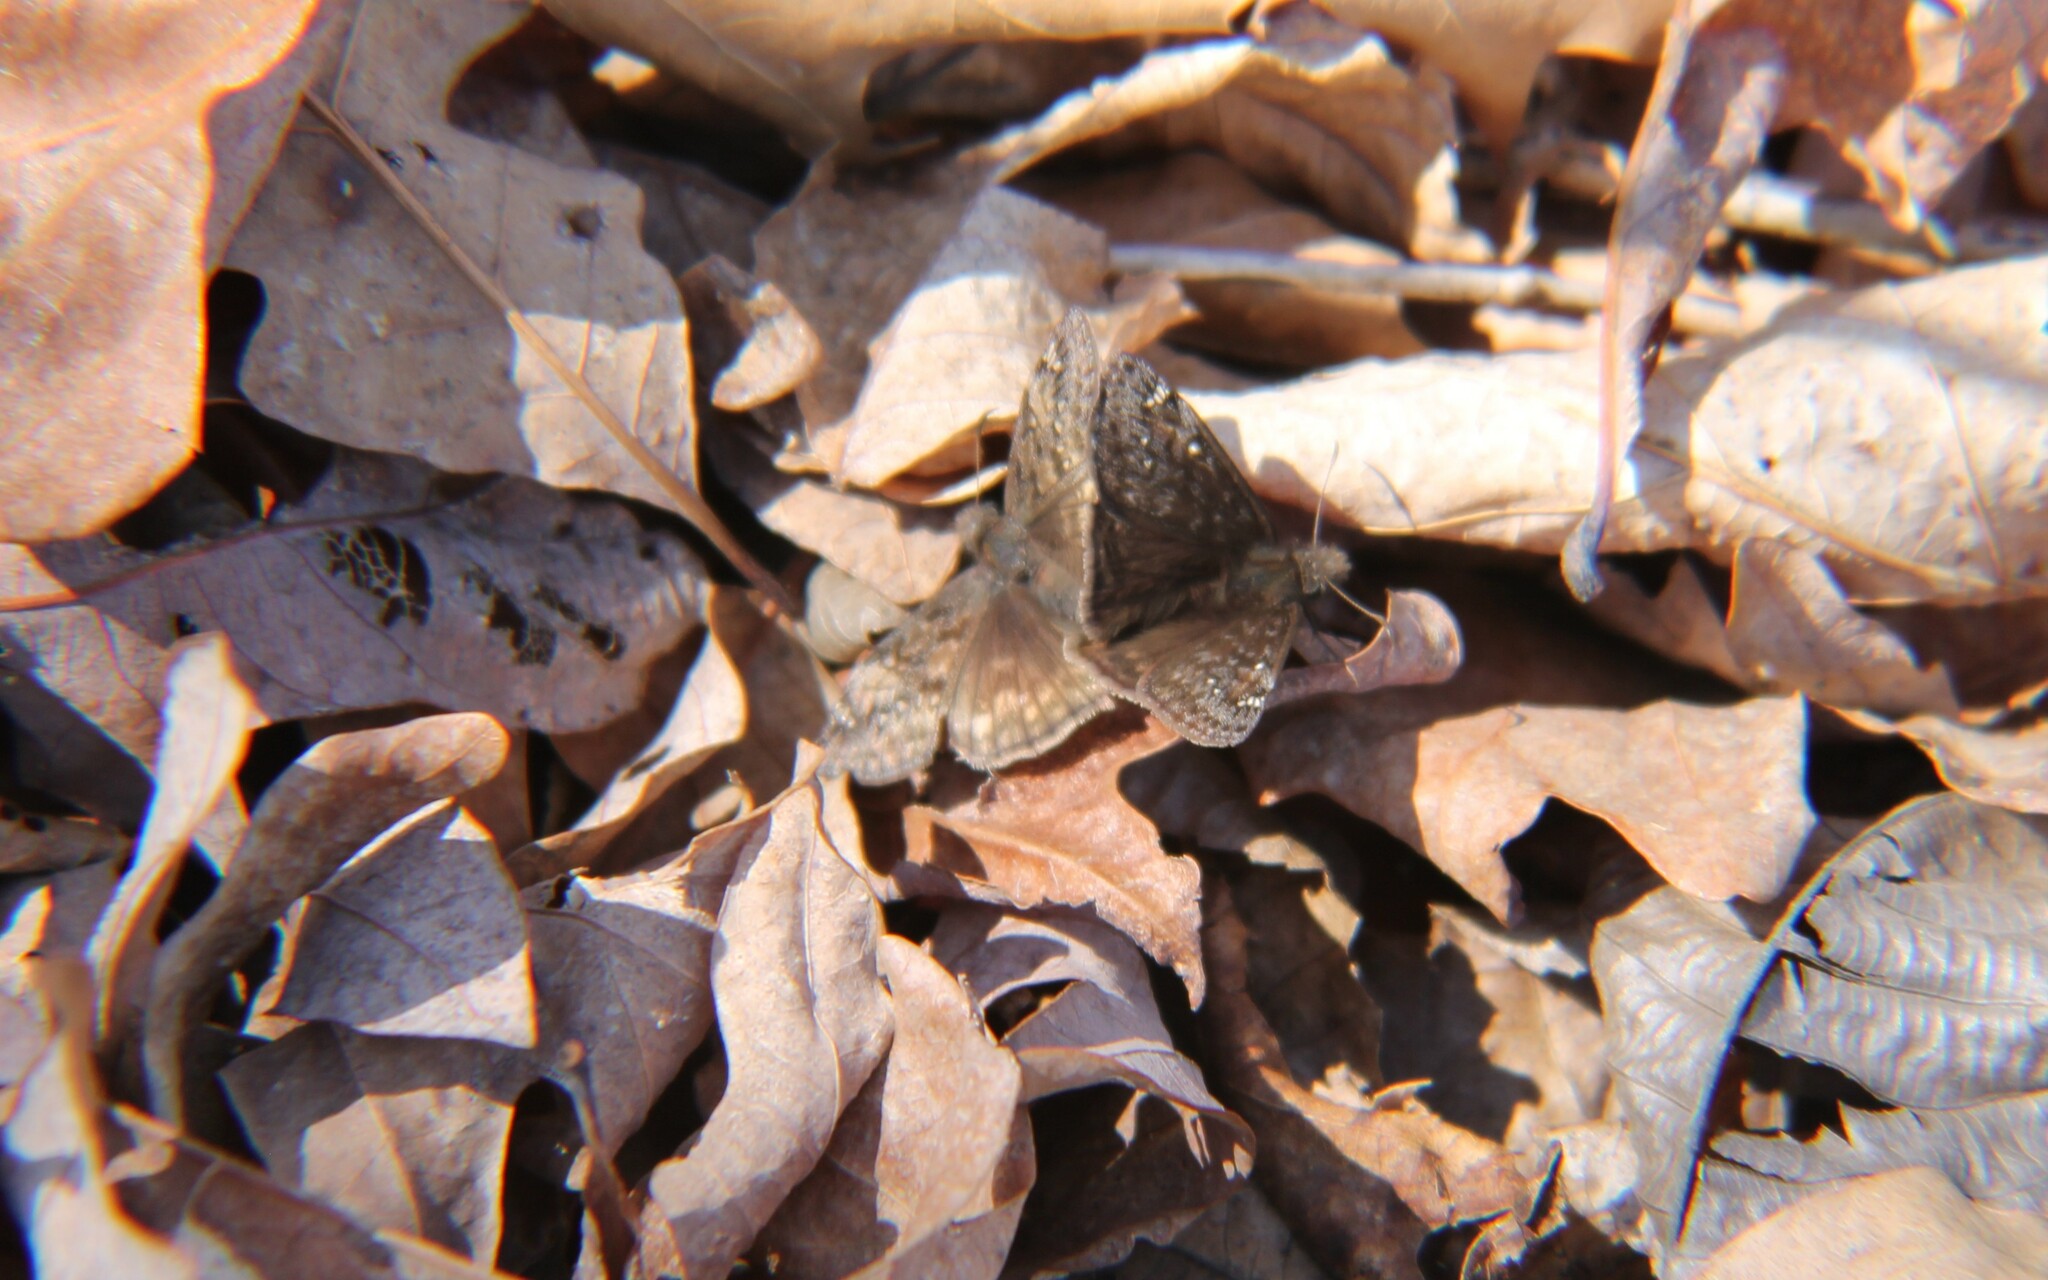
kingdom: Animalia
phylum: Arthropoda
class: Insecta
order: Lepidoptera
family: Hesperiidae
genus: Erynnis
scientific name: Erynnis juvenalis
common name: Juvenal's duskywing
